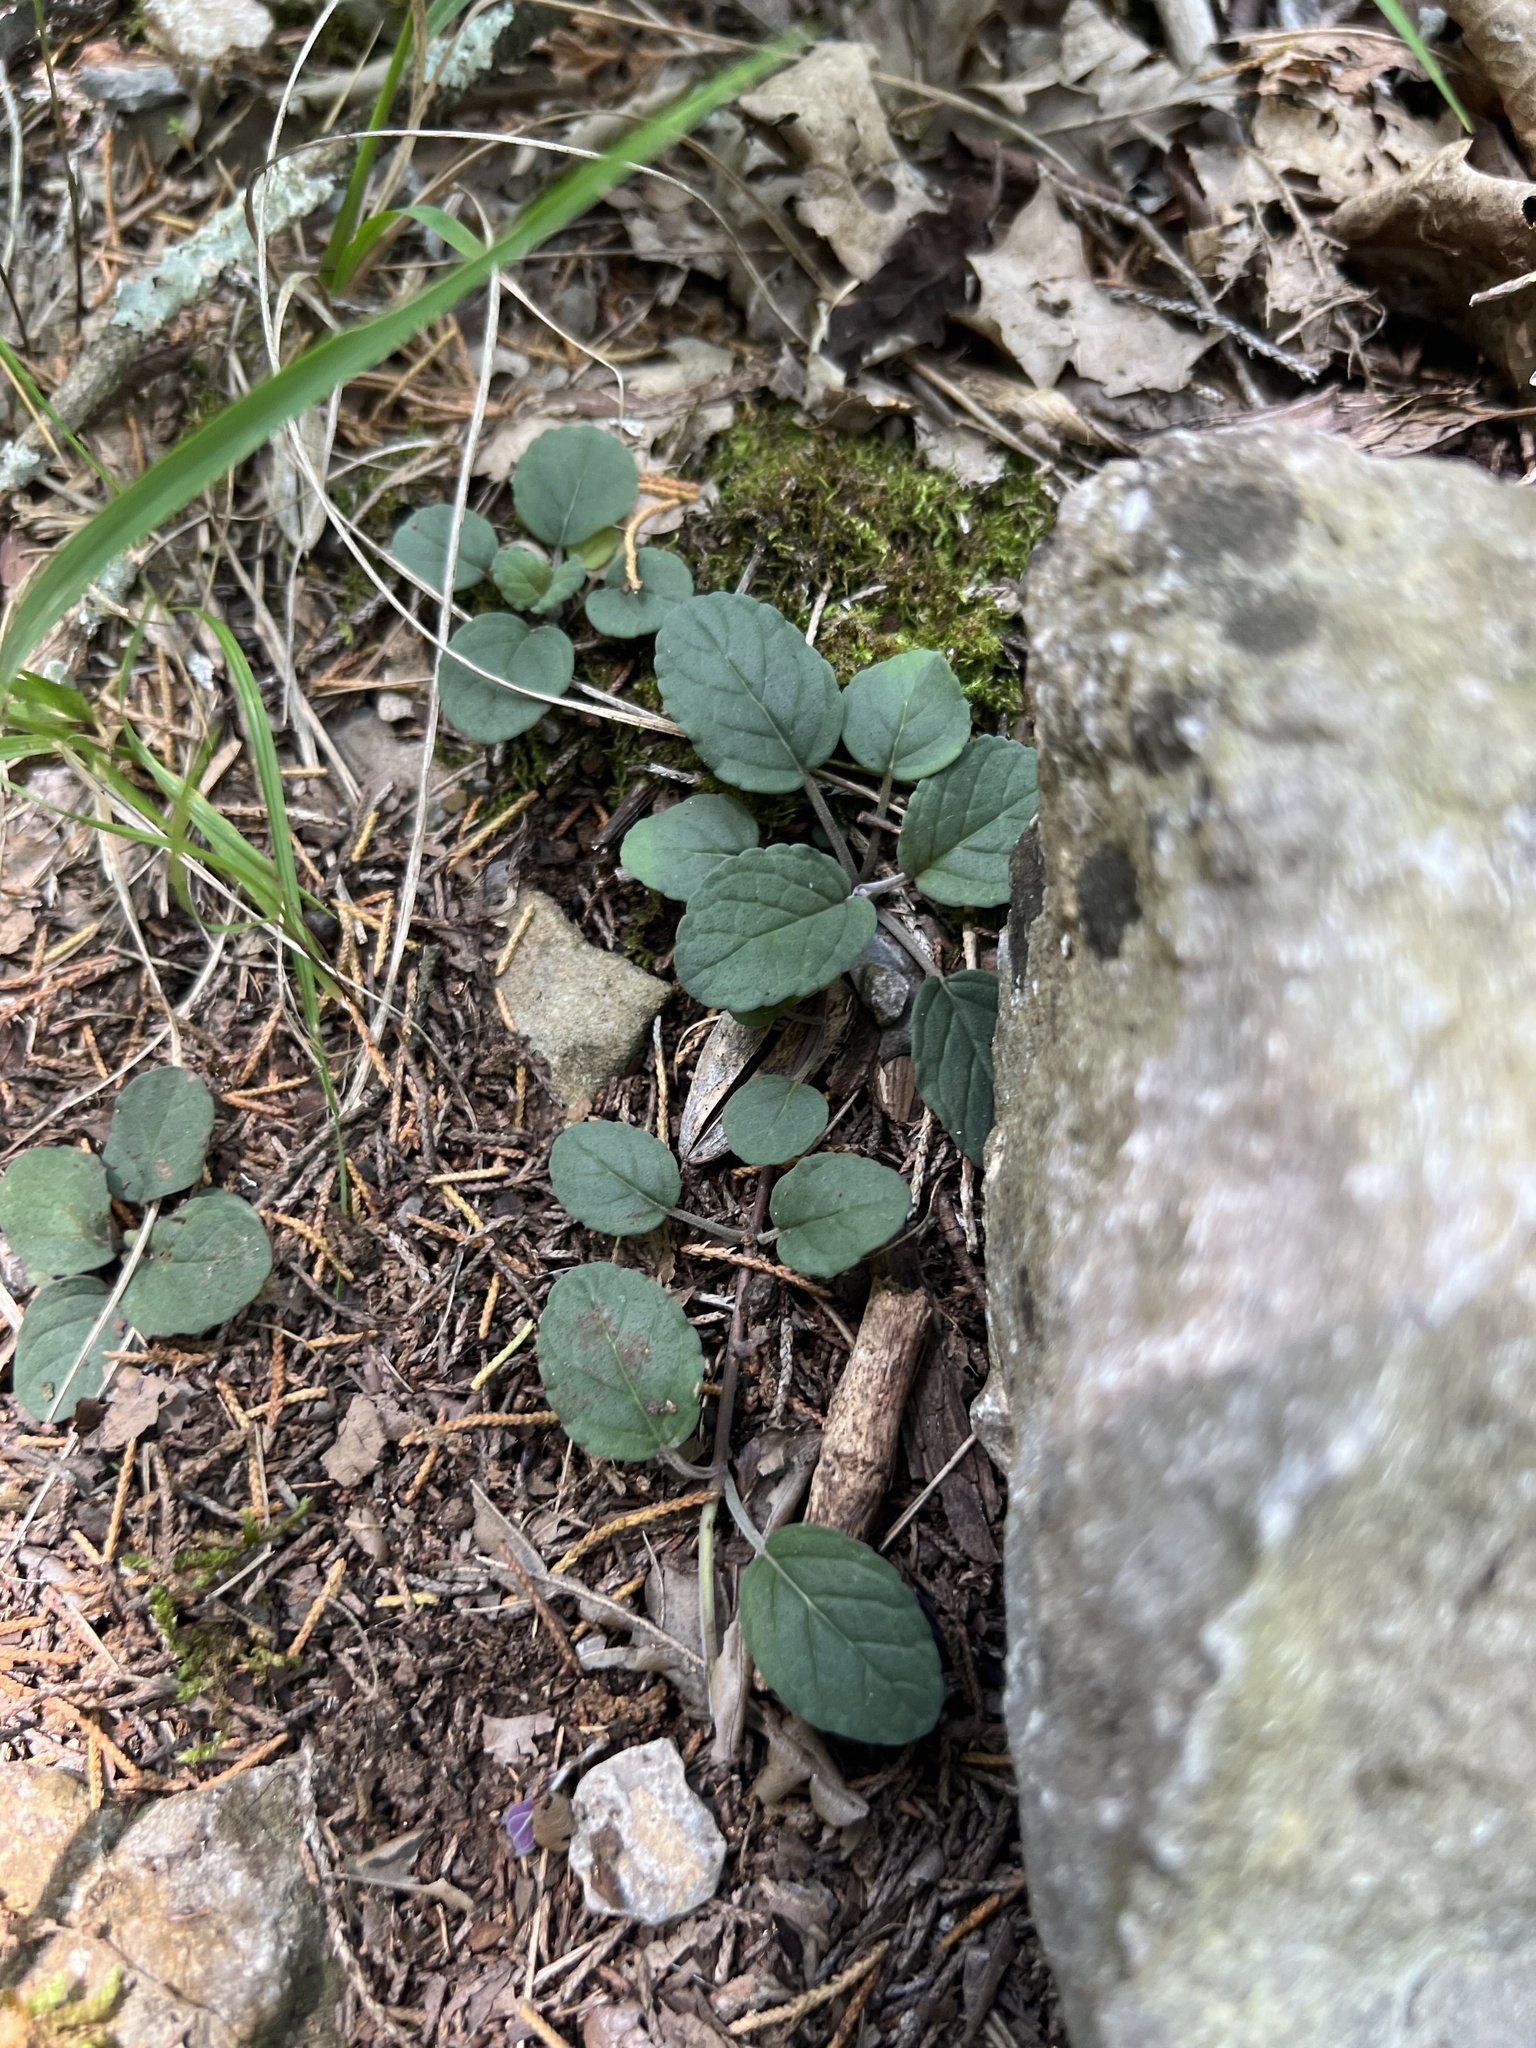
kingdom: Plantae
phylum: Tracheophyta
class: Magnoliopsida
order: Lamiales
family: Lamiaceae
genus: Blephilia
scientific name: Blephilia ciliata
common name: Downy blephilia
